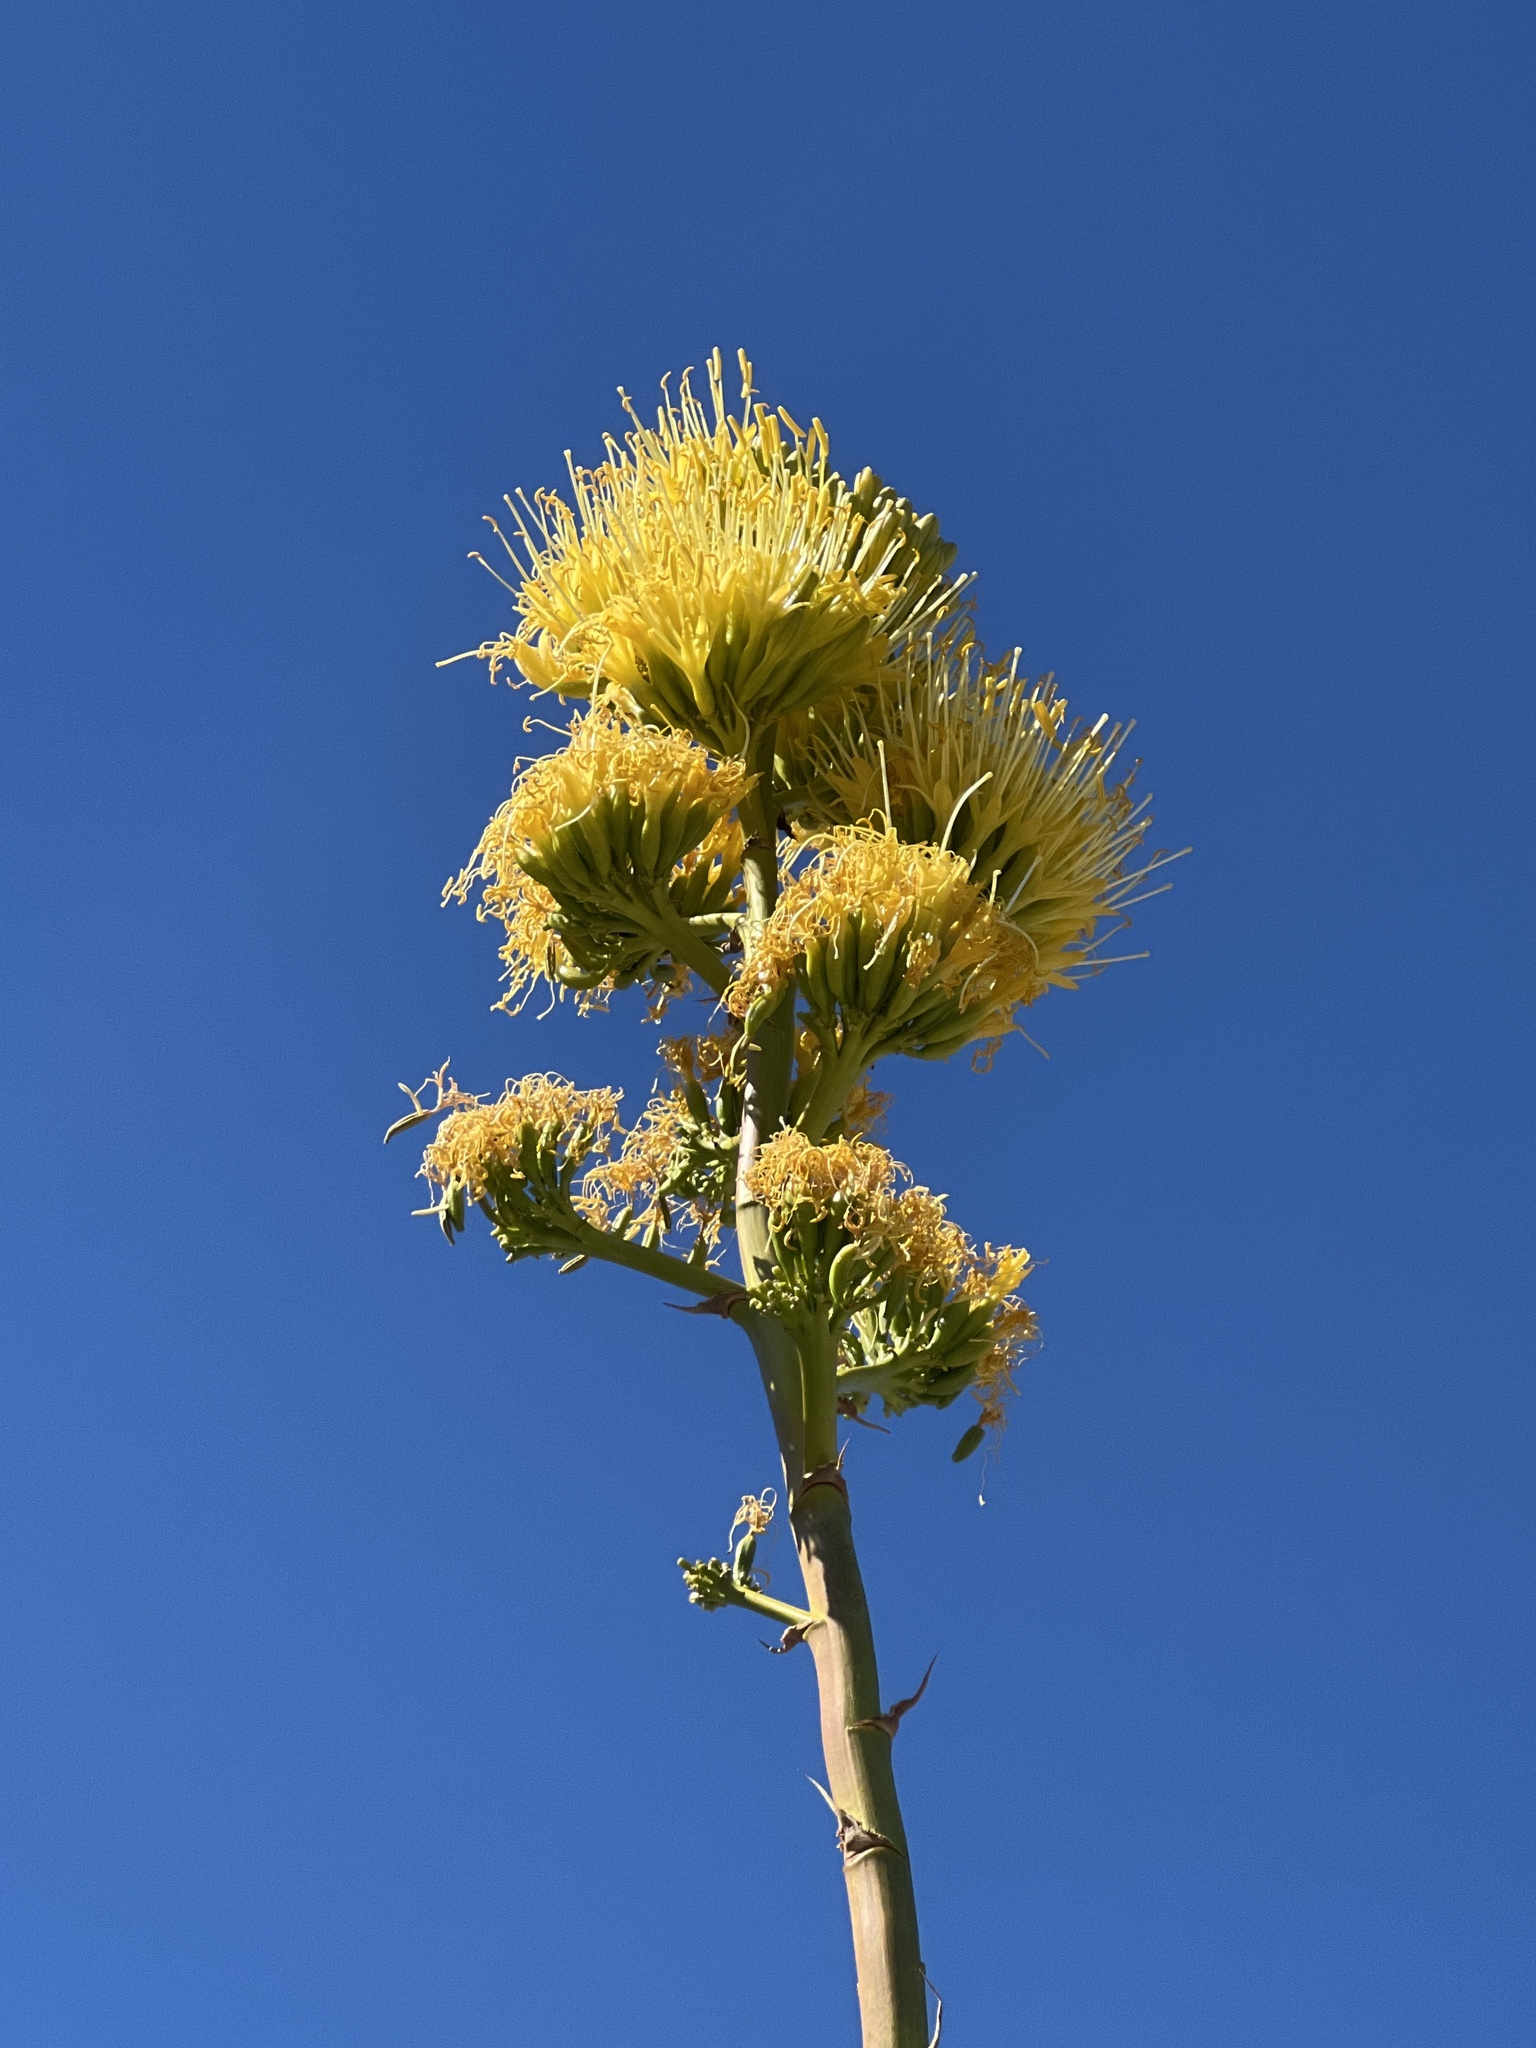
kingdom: Plantae
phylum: Tracheophyta
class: Liliopsida
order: Asparagales
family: Asparagaceae
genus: Agave
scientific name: Agave deserti
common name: Desert agave
